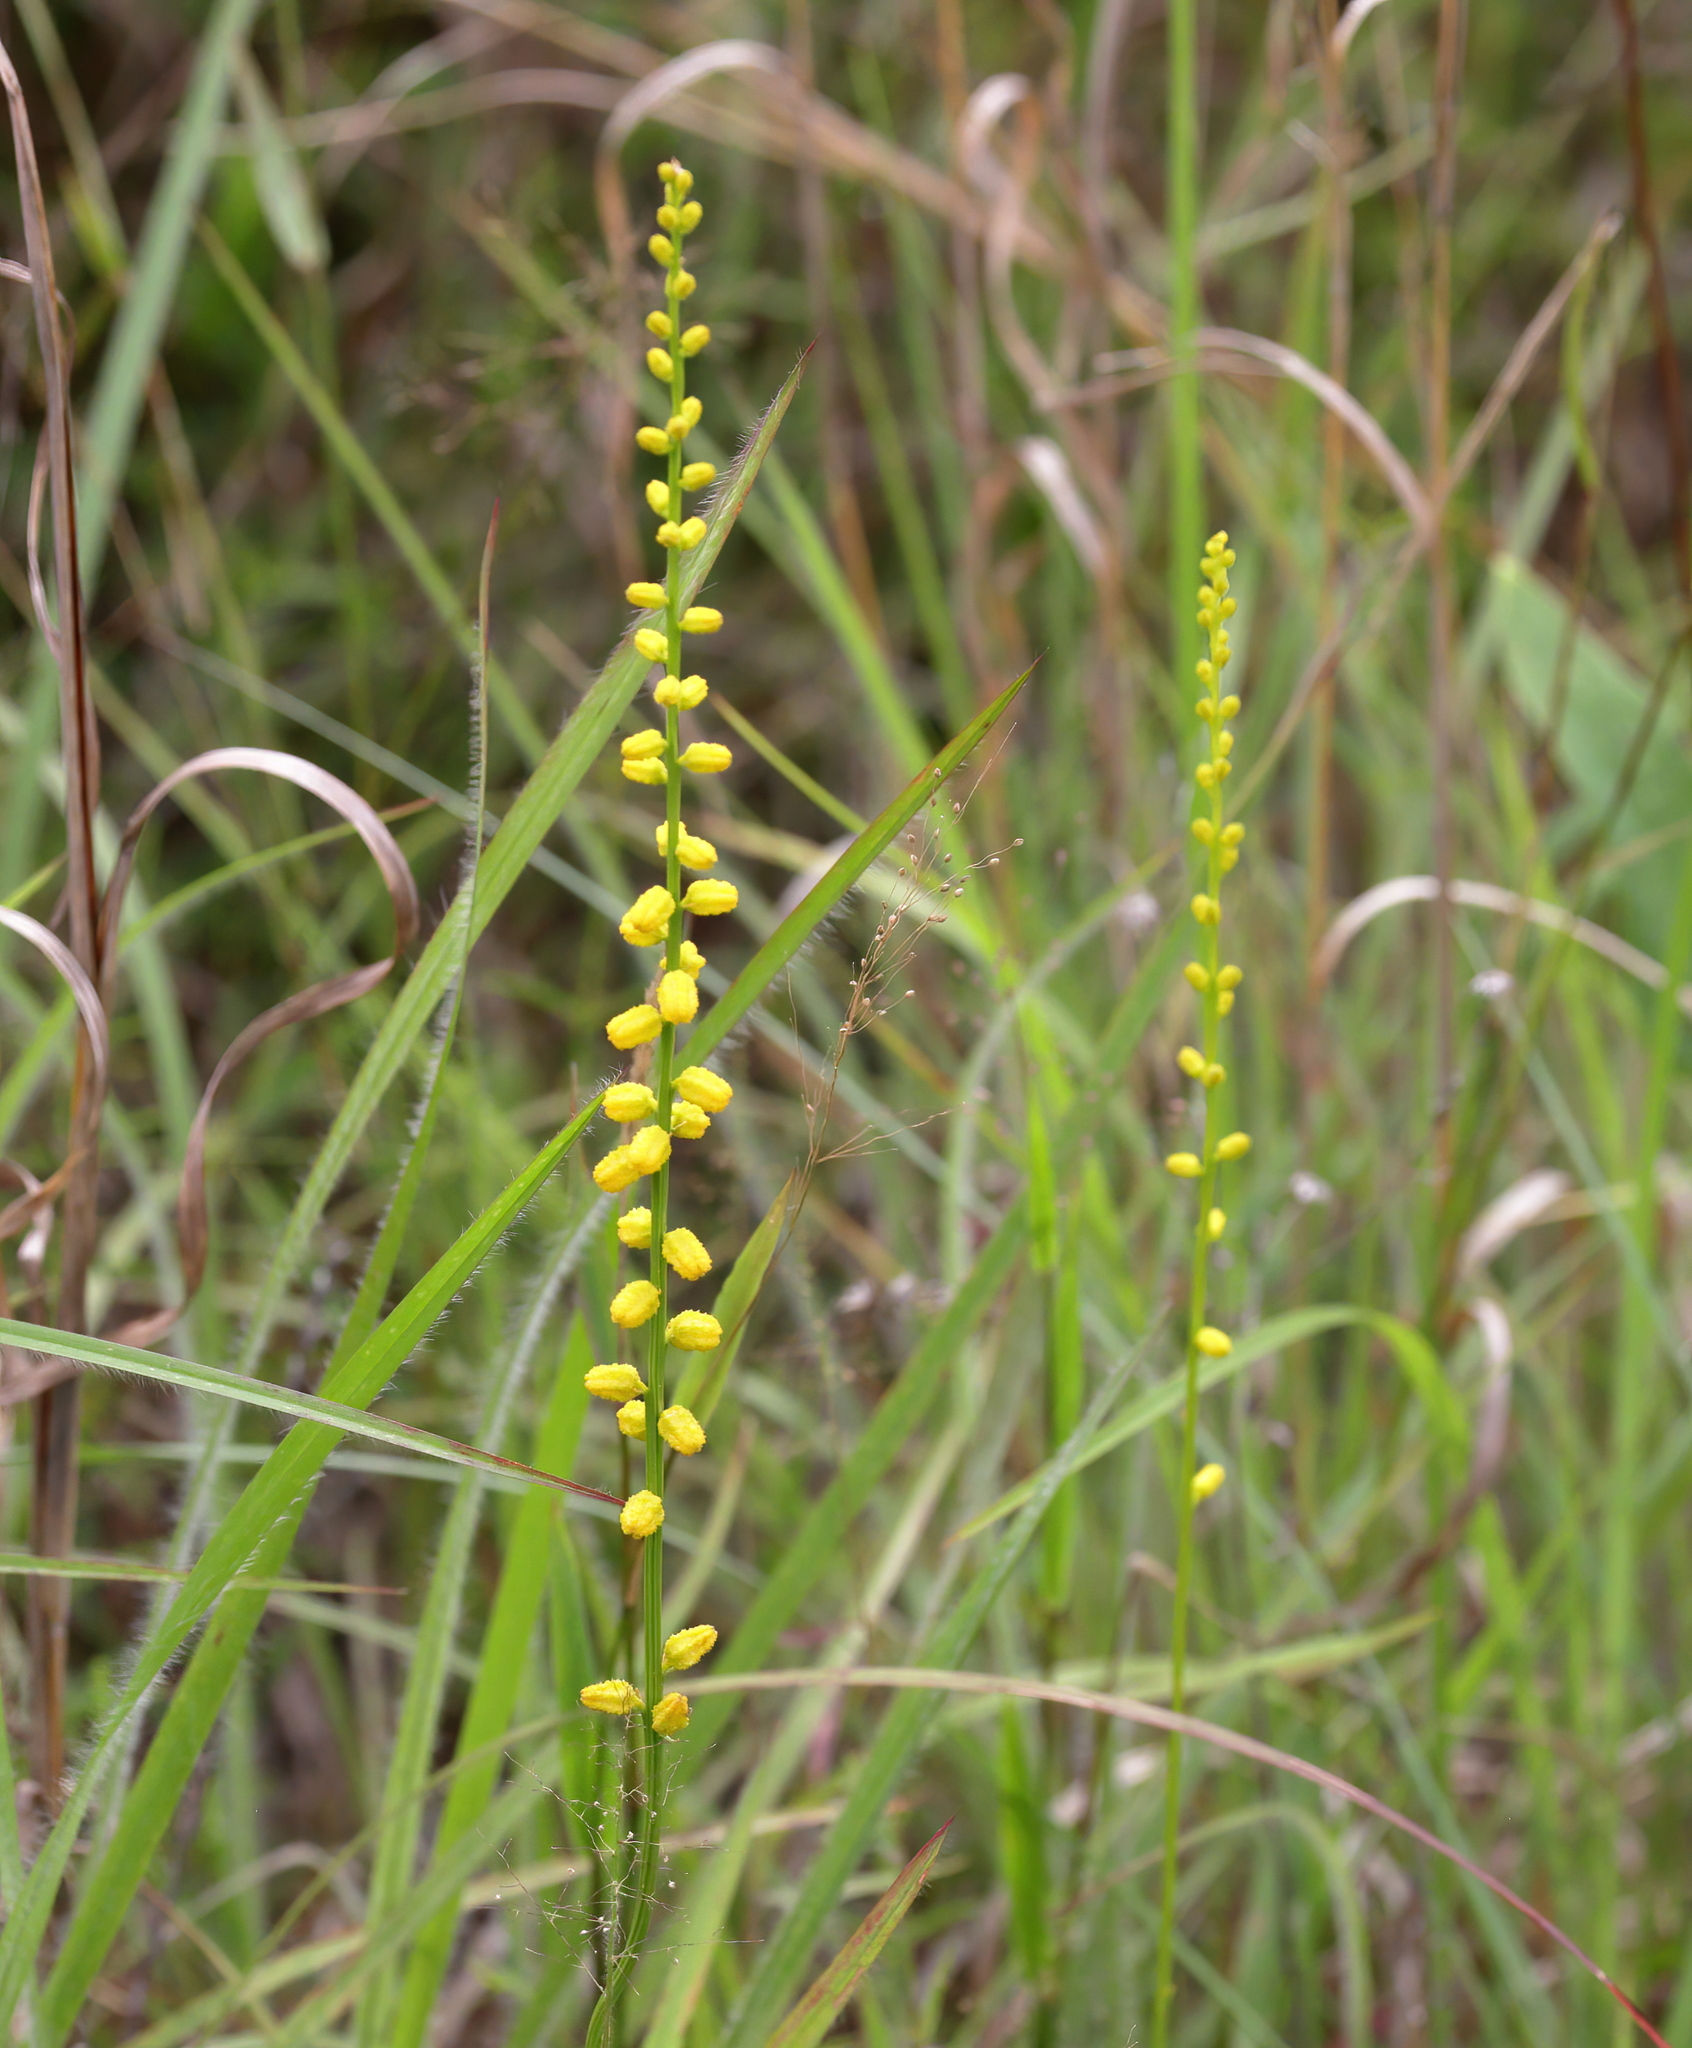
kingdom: Plantae
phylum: Tracheophyta
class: Liliopsida
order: Dioscoreales
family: Nartheciaceae
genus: Aletris
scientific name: Aletris aurea
